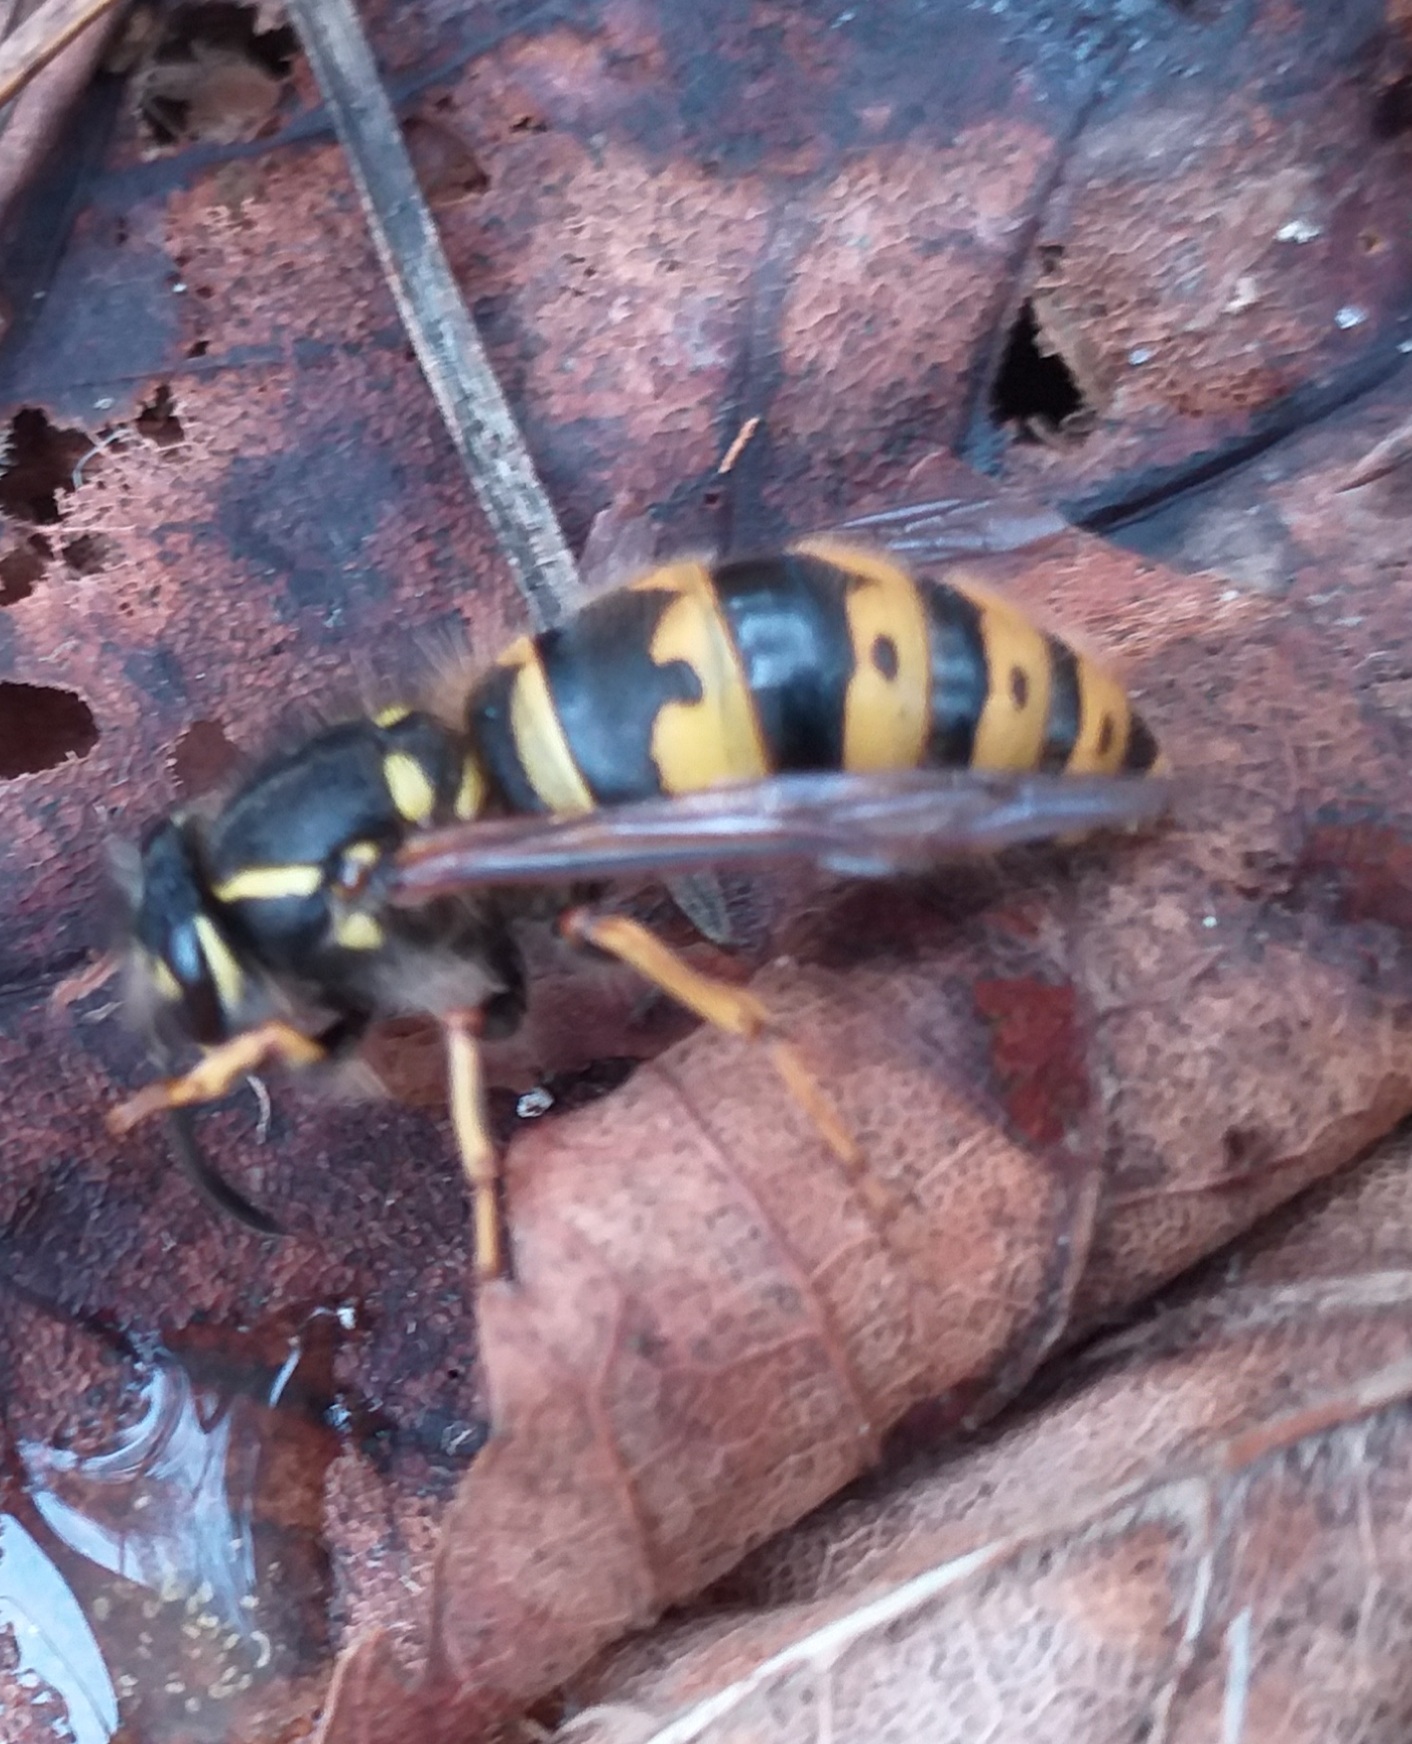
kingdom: Animalia
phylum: Arthropoda
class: Insecta
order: Hymenoptera
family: Vespidae
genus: Vespula
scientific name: Vespula vulgaris
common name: Common wasp
